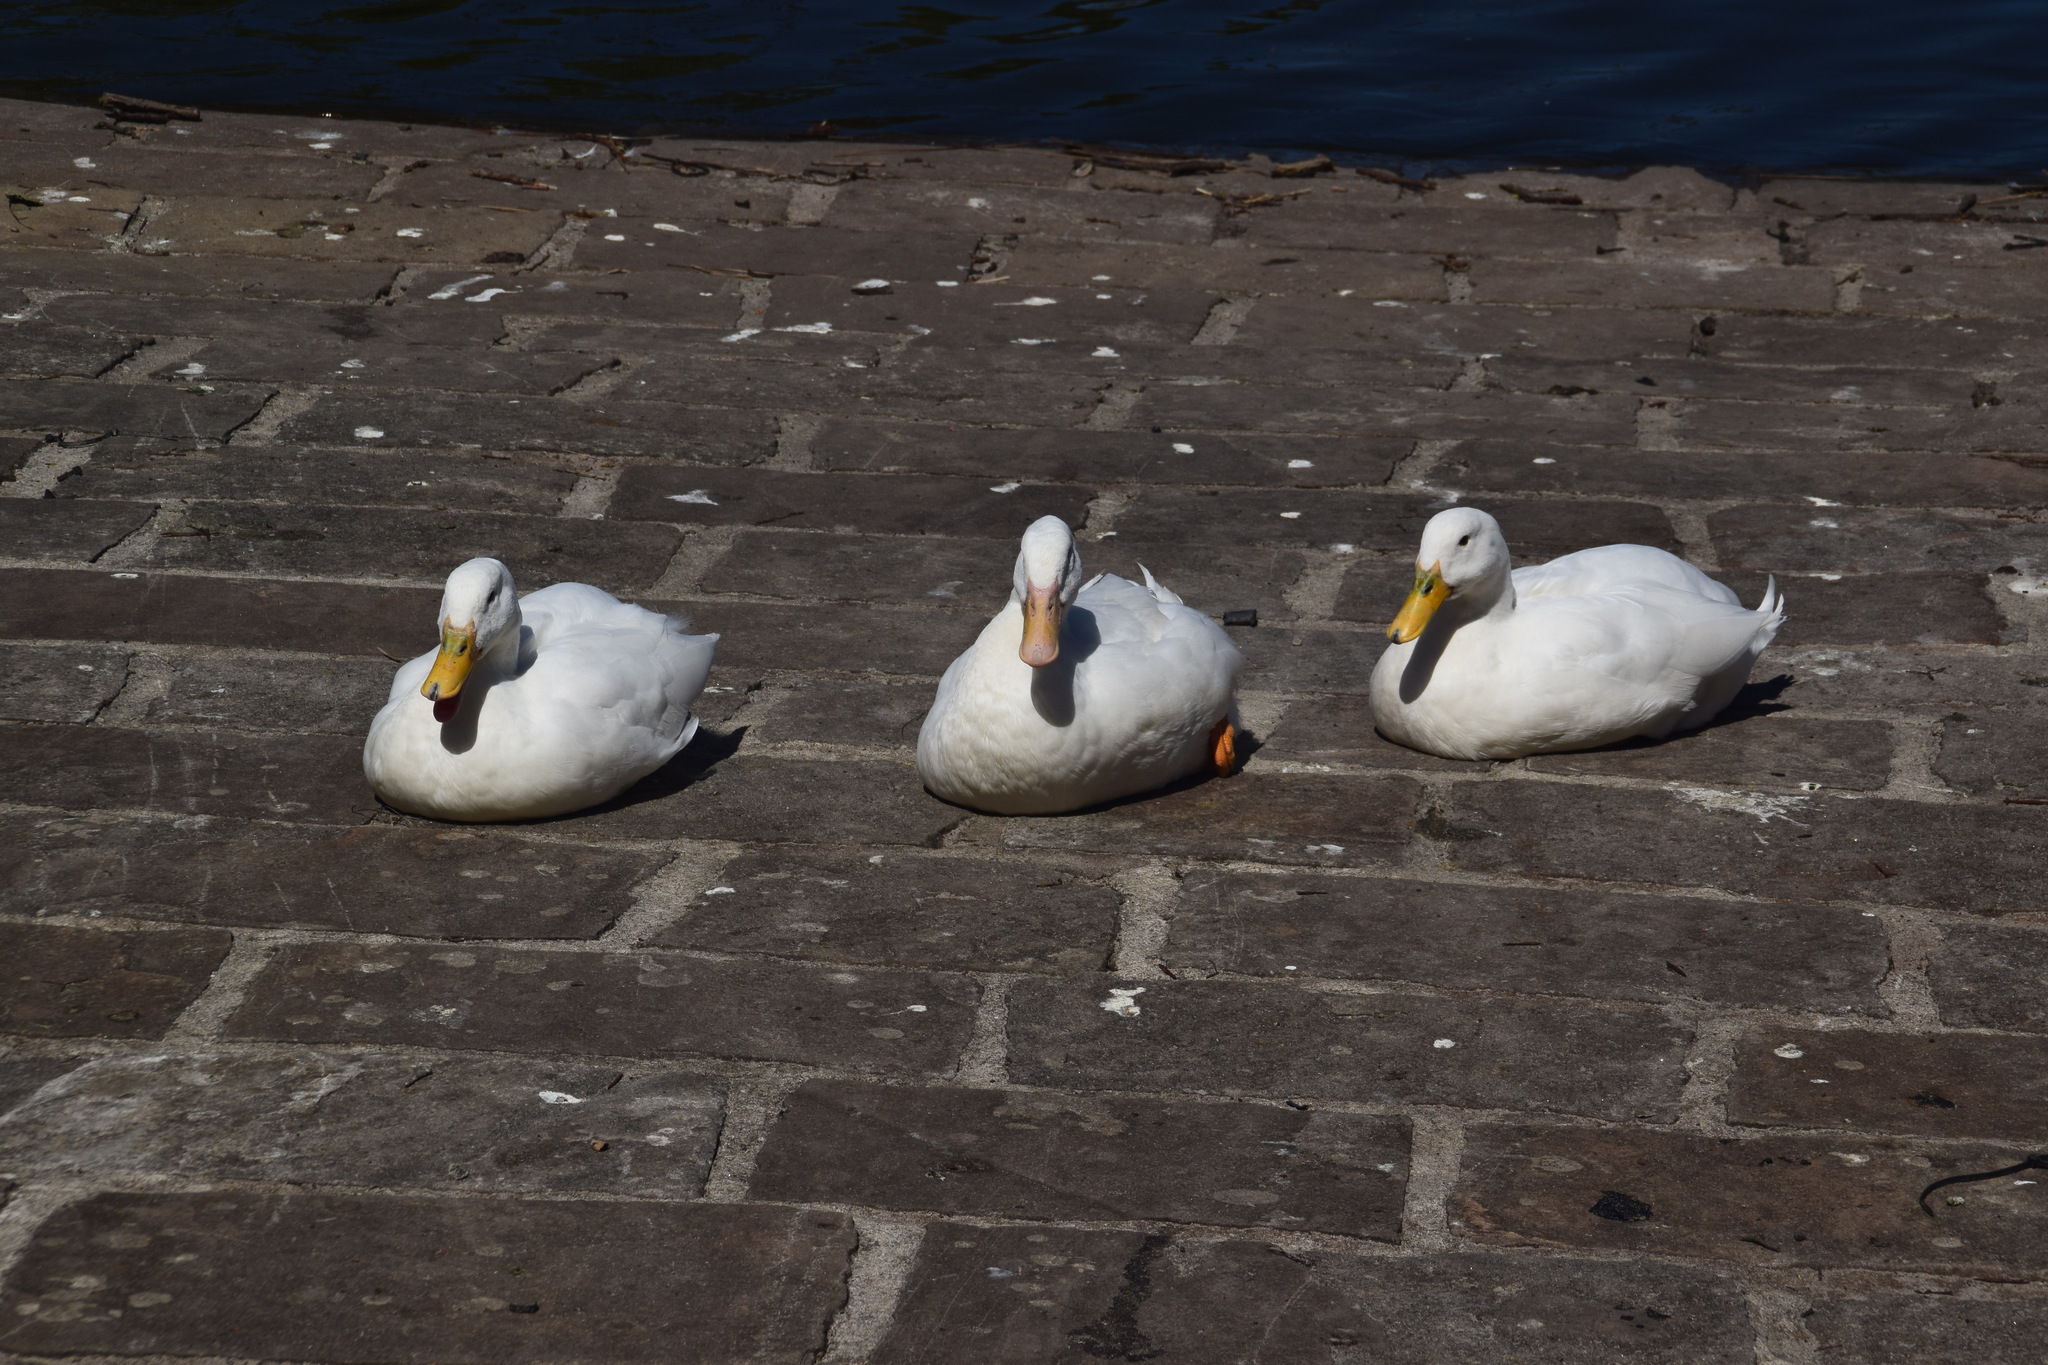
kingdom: Animalia
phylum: Chordata
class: Aves
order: Anseriformes
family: Anatidae
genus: Anas
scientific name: Anas platyrhynchos
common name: Mallard
